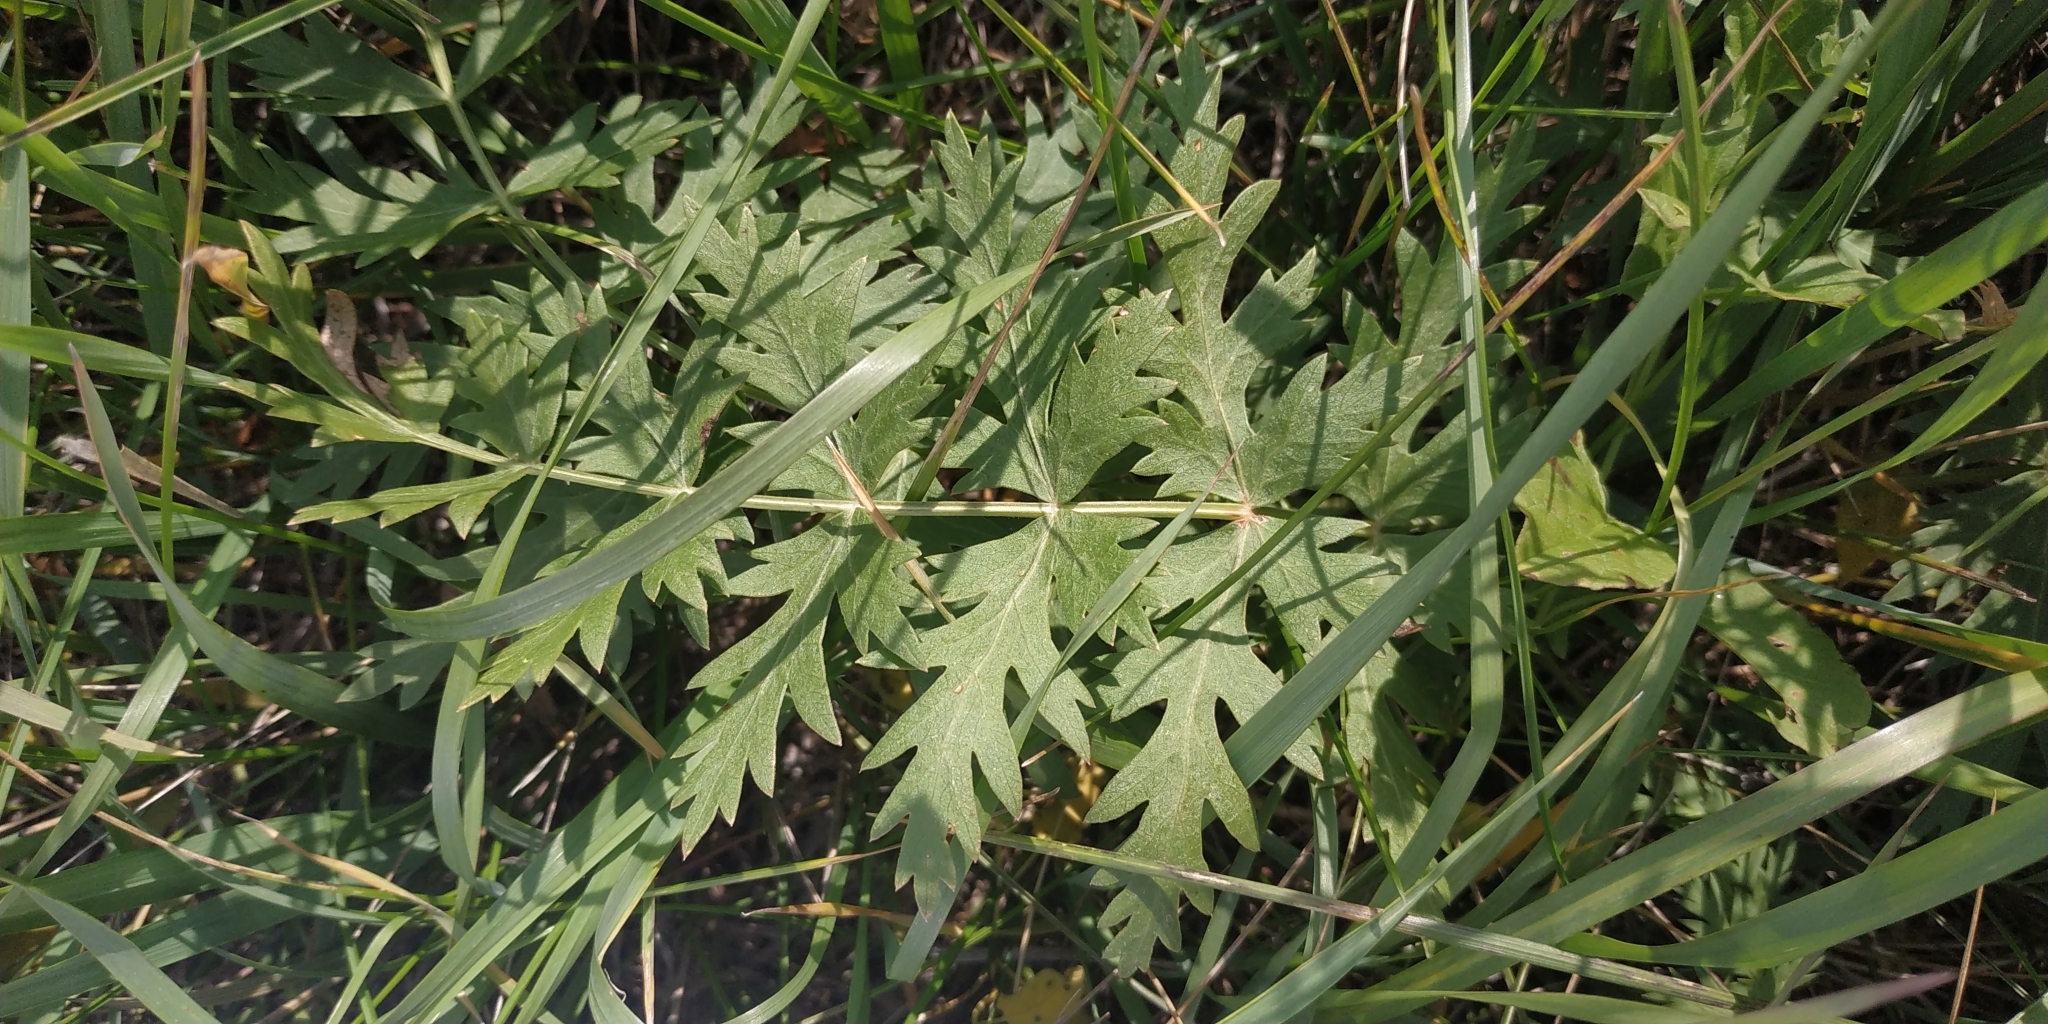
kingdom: Plantae
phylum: Tracheophyta
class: Magnoliopsida
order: Apiales
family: Apiaceae
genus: Seseli
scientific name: Seseli libanotis
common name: Mooncarrot
